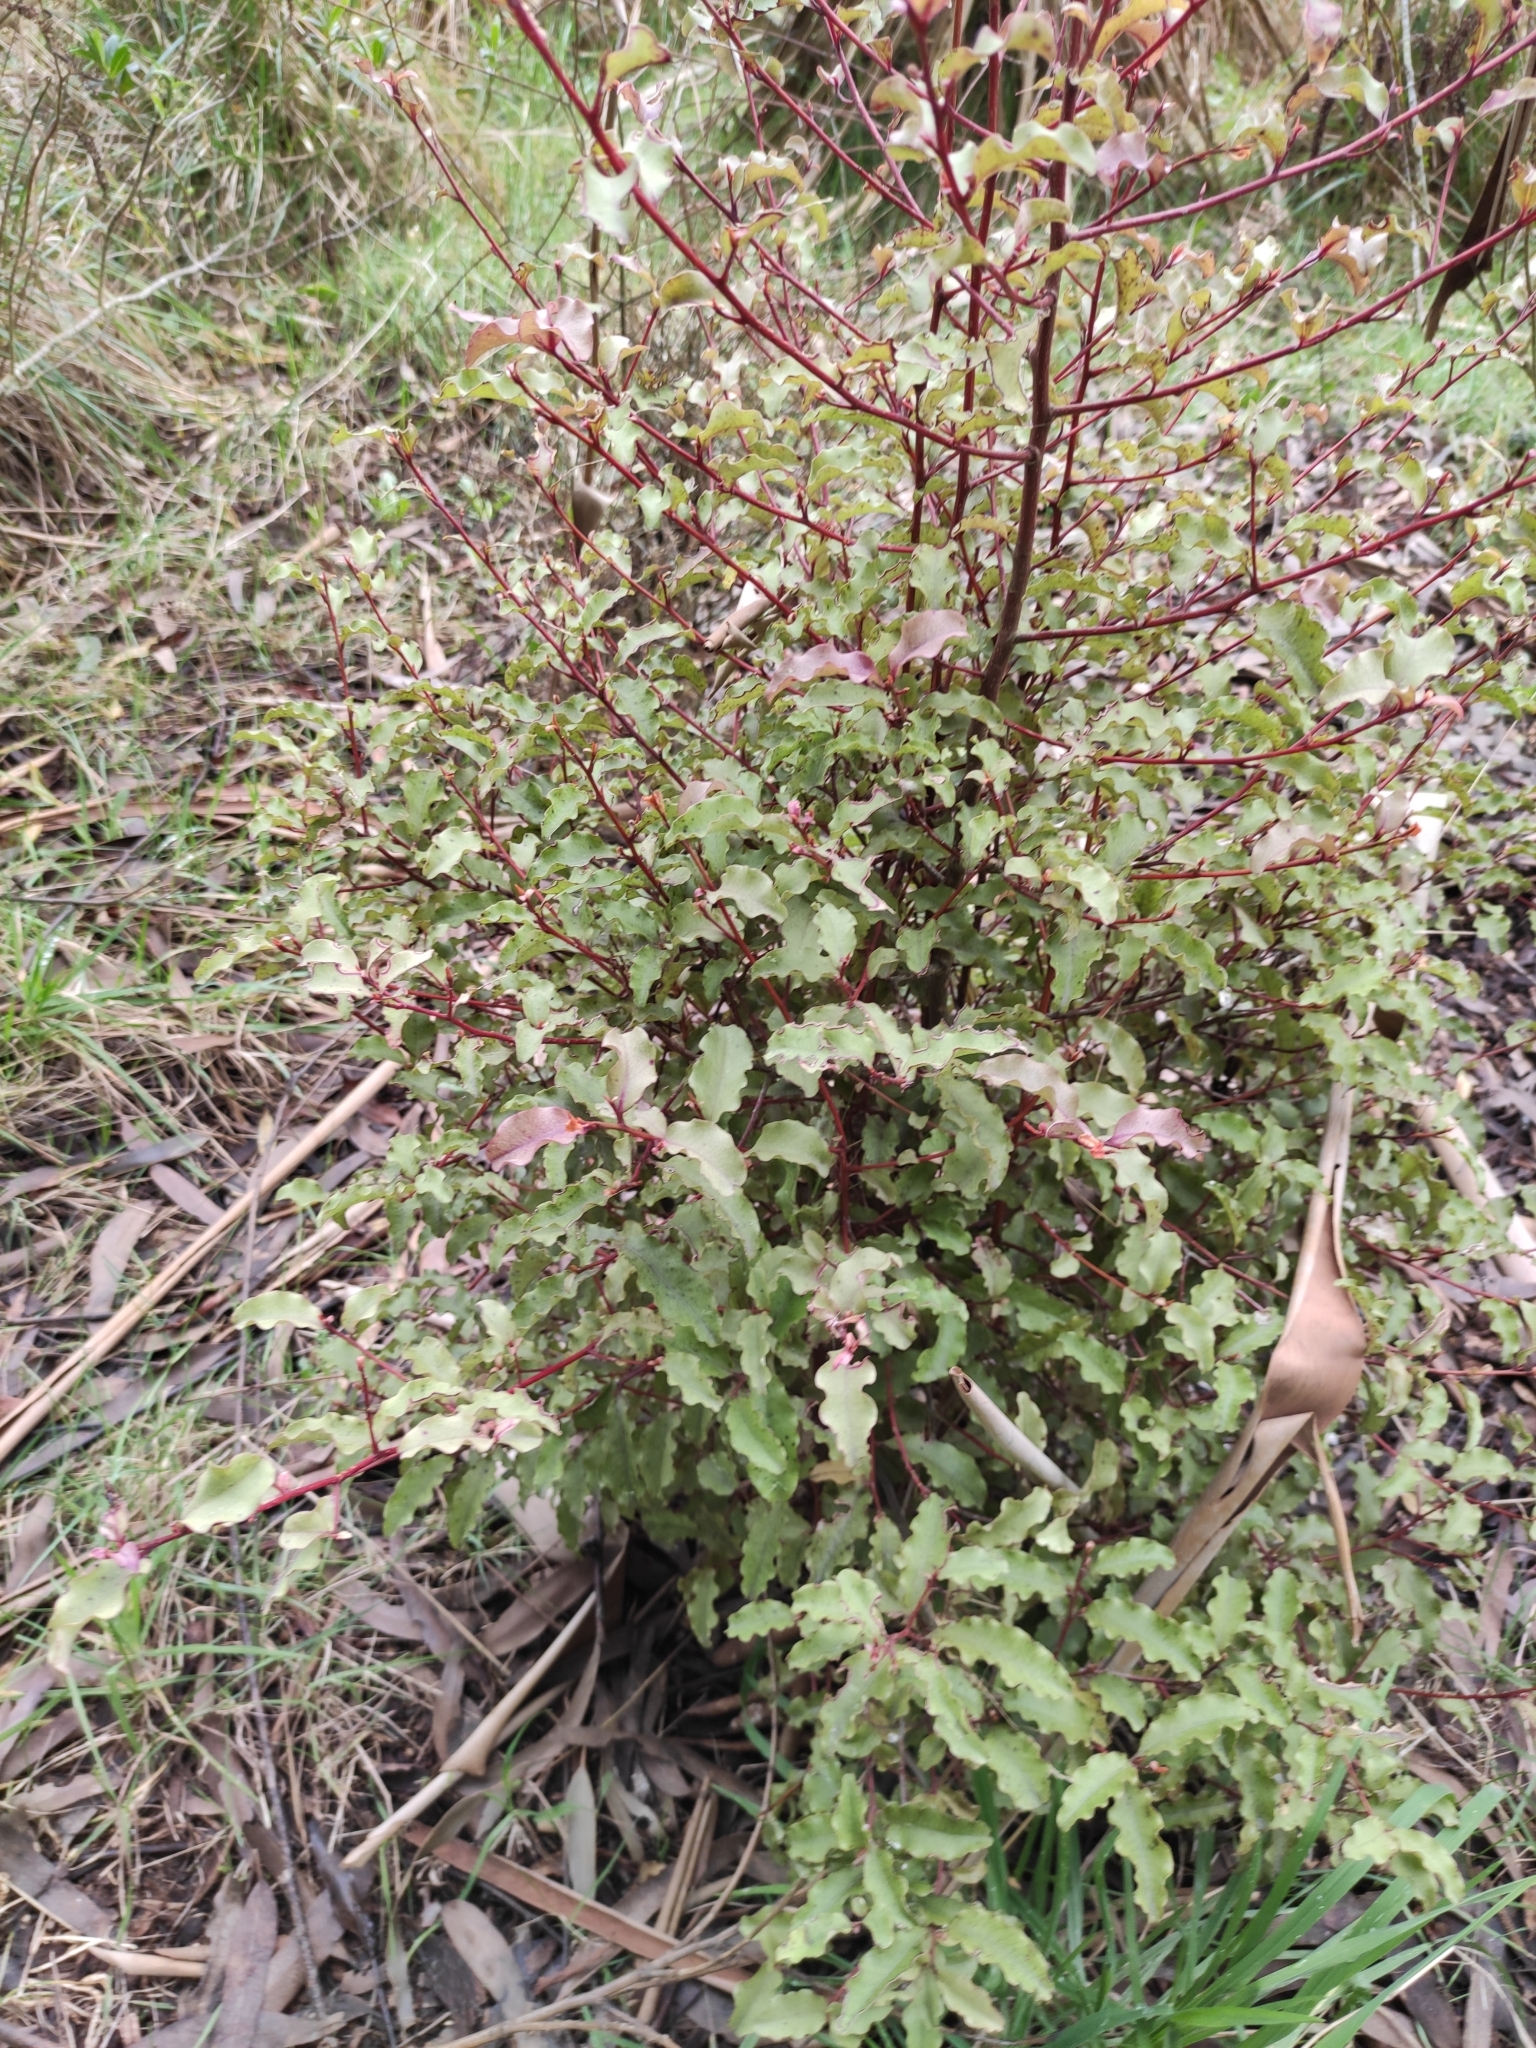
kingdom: Plantae
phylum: Tracheophyta
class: Magnoliopsida
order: Ericales
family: Primulaceae
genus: Myrsine
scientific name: Myrsine australis
